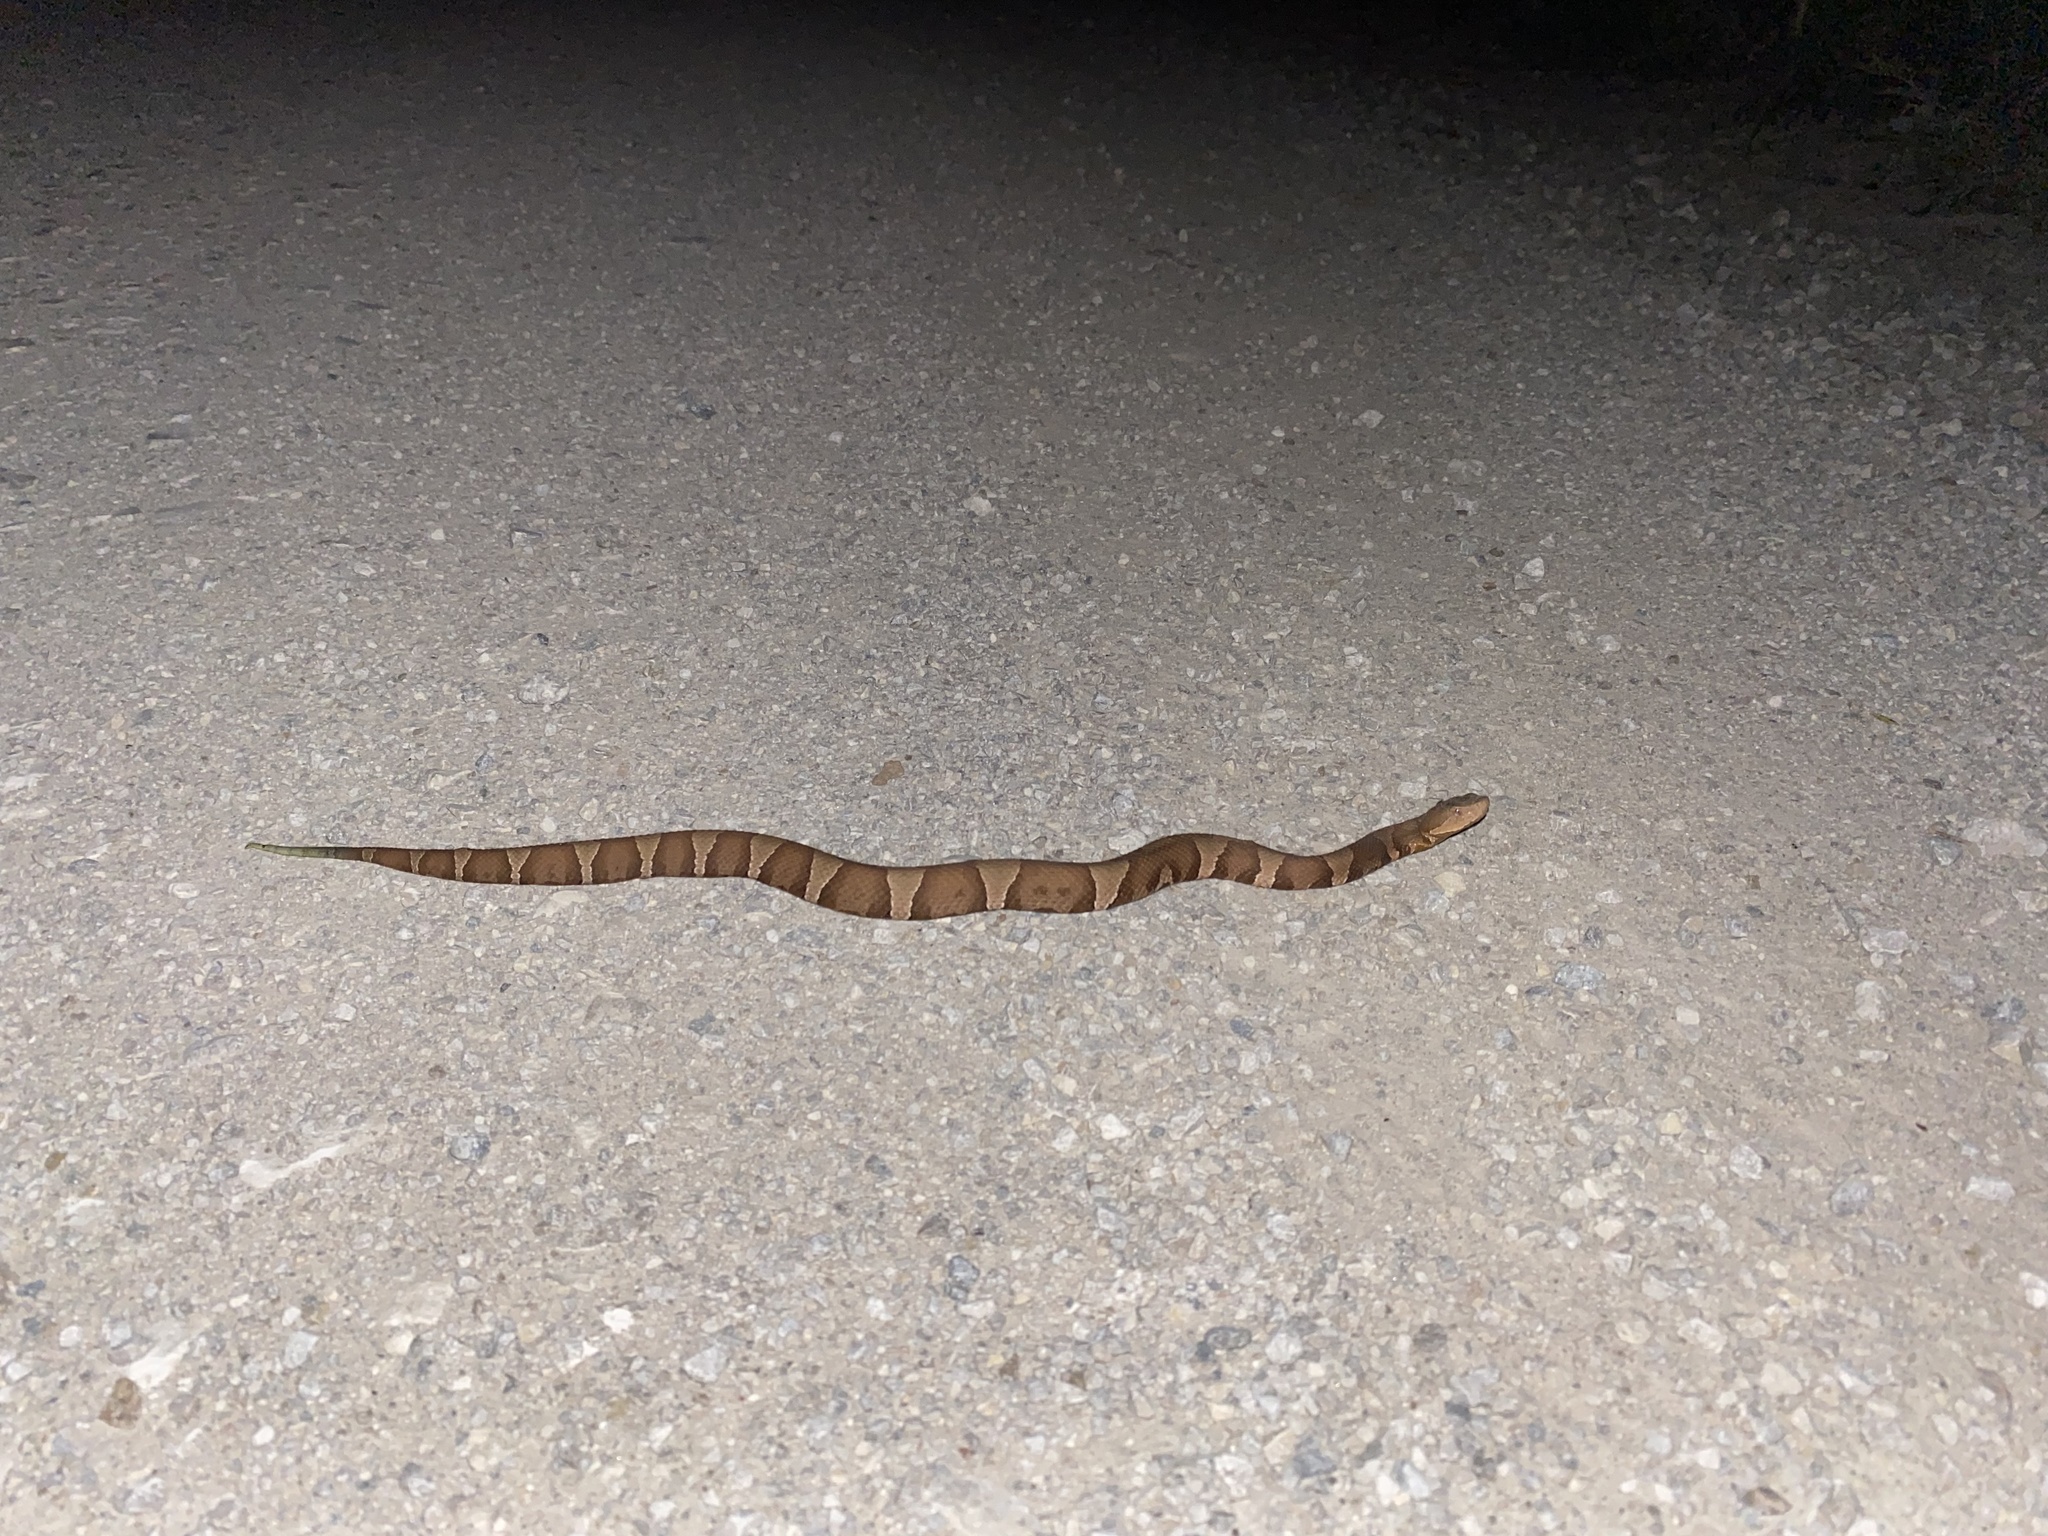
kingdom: Animalia
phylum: Chordata
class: Squamata
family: Viperidae
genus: Agkistrodon
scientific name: Agkistrodon laticinctus
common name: Broad-banded copperhead
